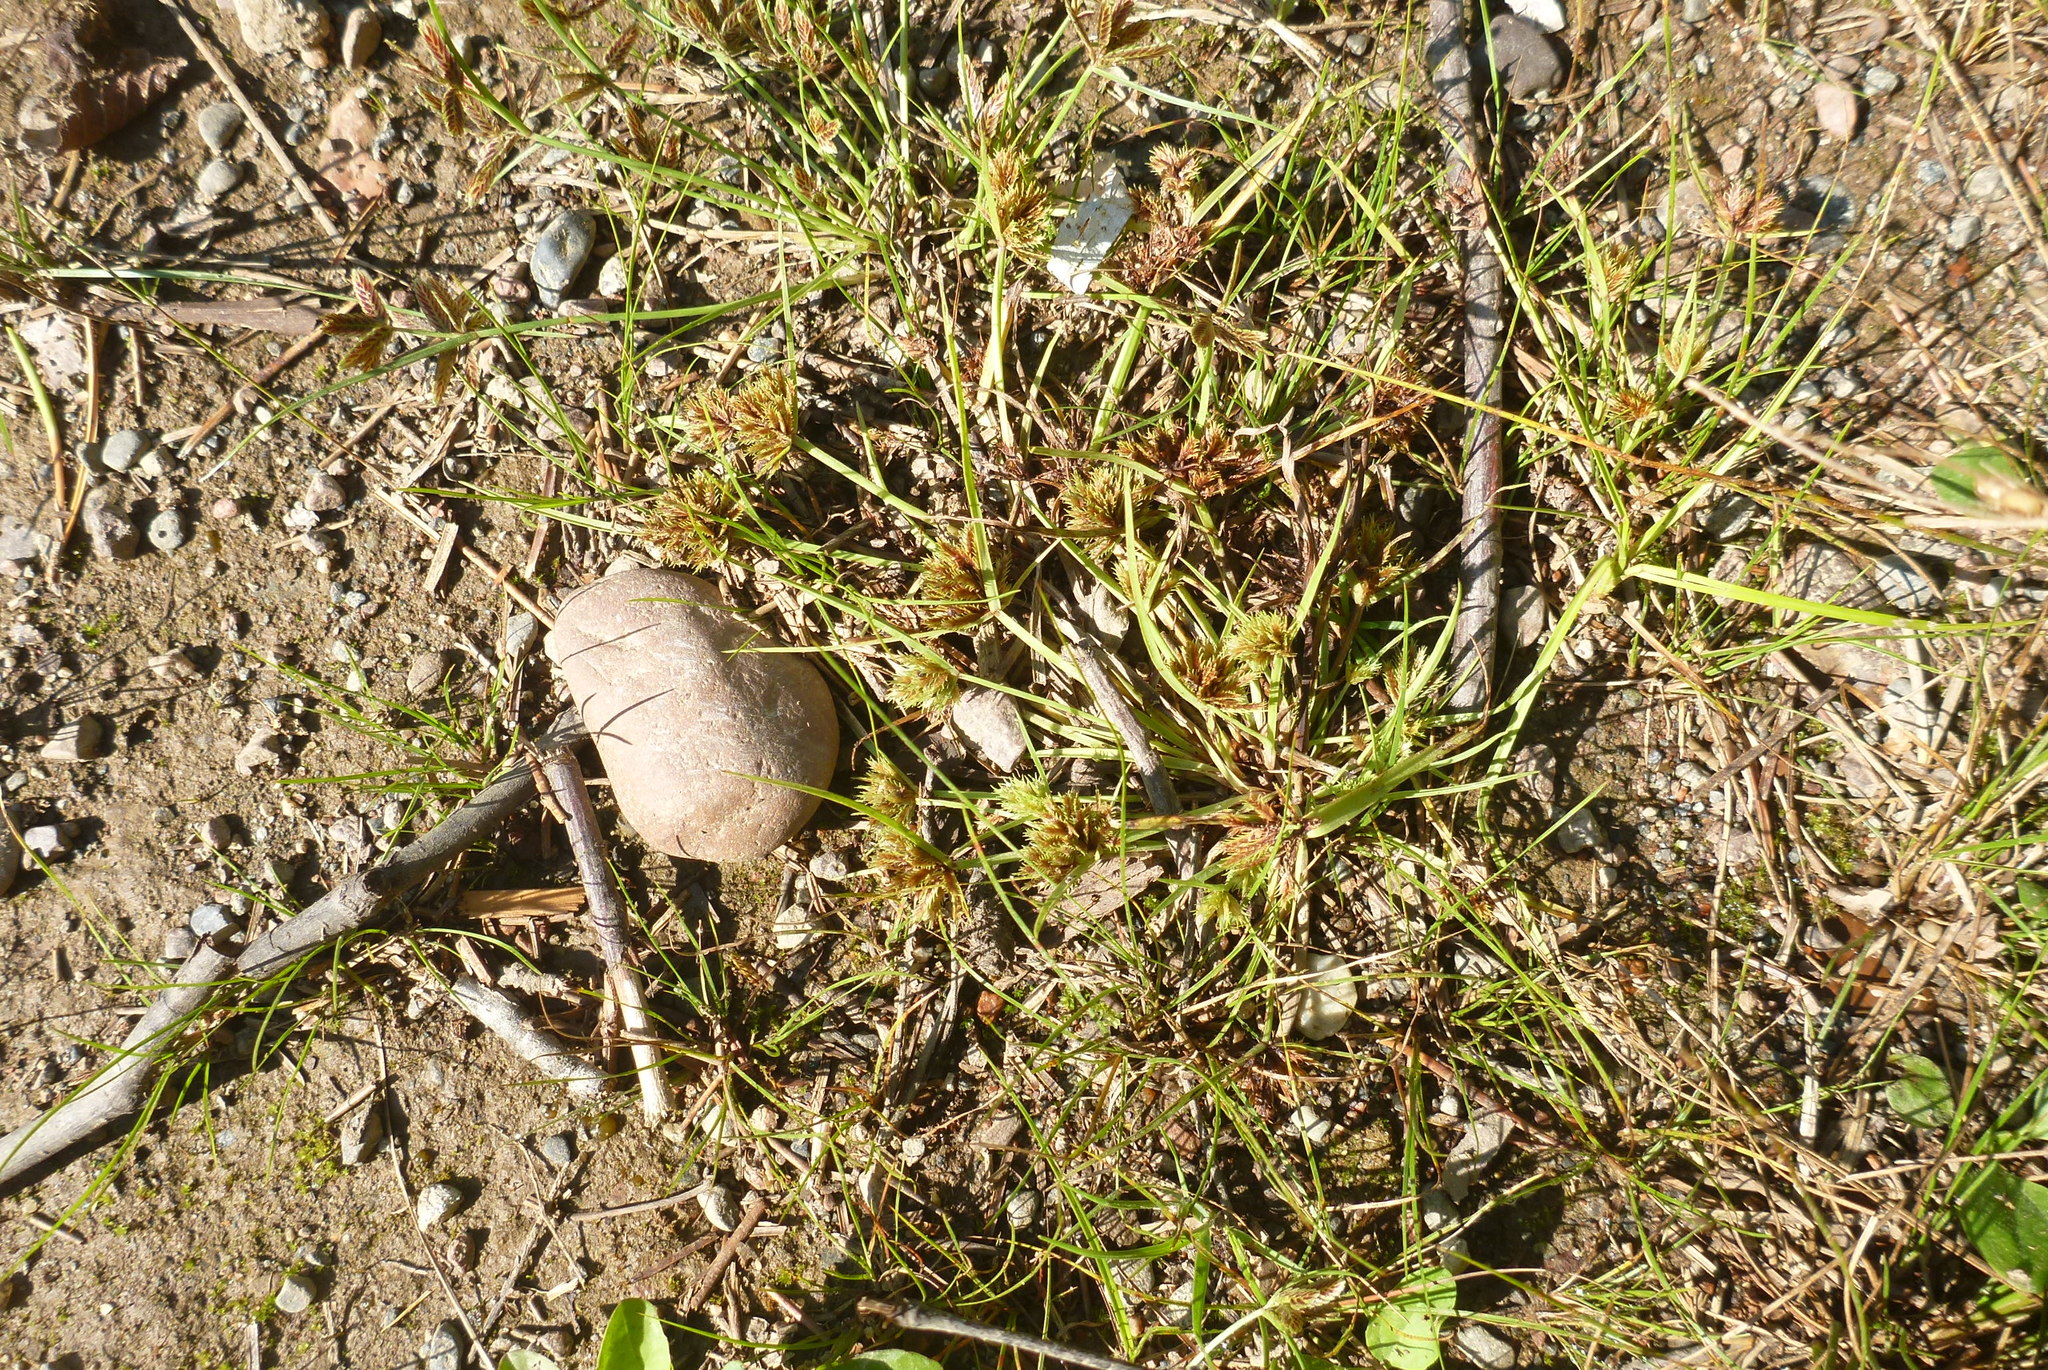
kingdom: Plantae
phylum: Tracheophyta
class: Liliopsida
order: Poales
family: Cyperaceae
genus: Cyperus
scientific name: Cyperus squarrosus
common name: Awned cyperus
